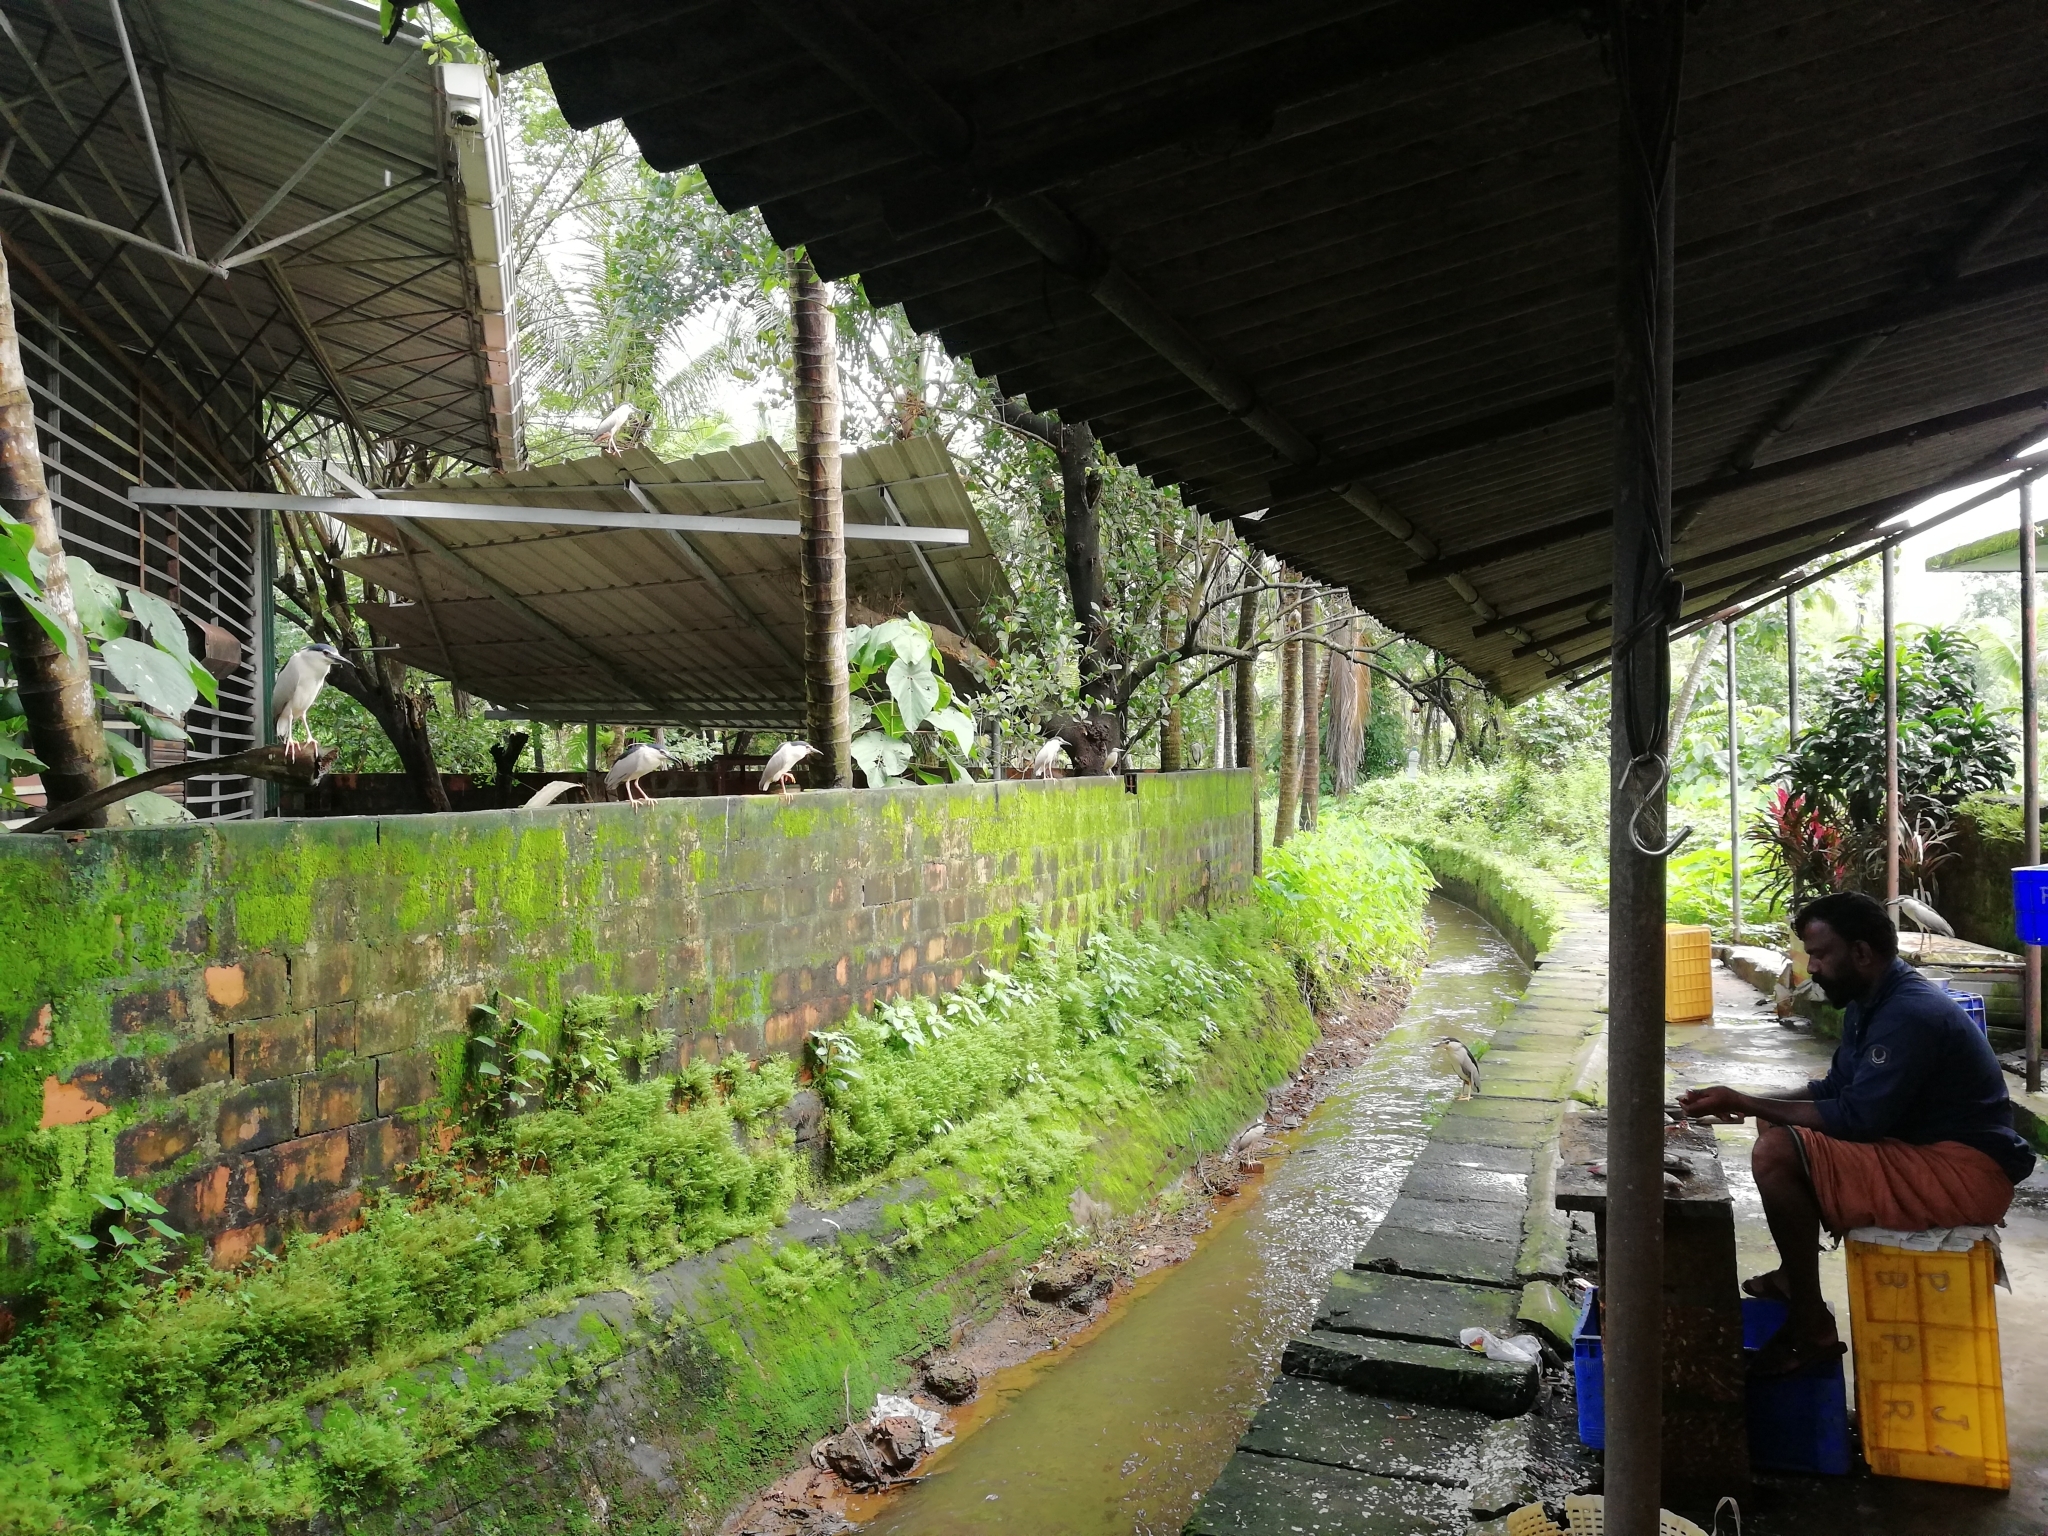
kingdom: Animalia
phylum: Chordata
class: Aves
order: Pelecaniformes
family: Ardeidae
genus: Nycticorax
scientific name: Nycticorax nycticorax
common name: Black-crowned night heron
